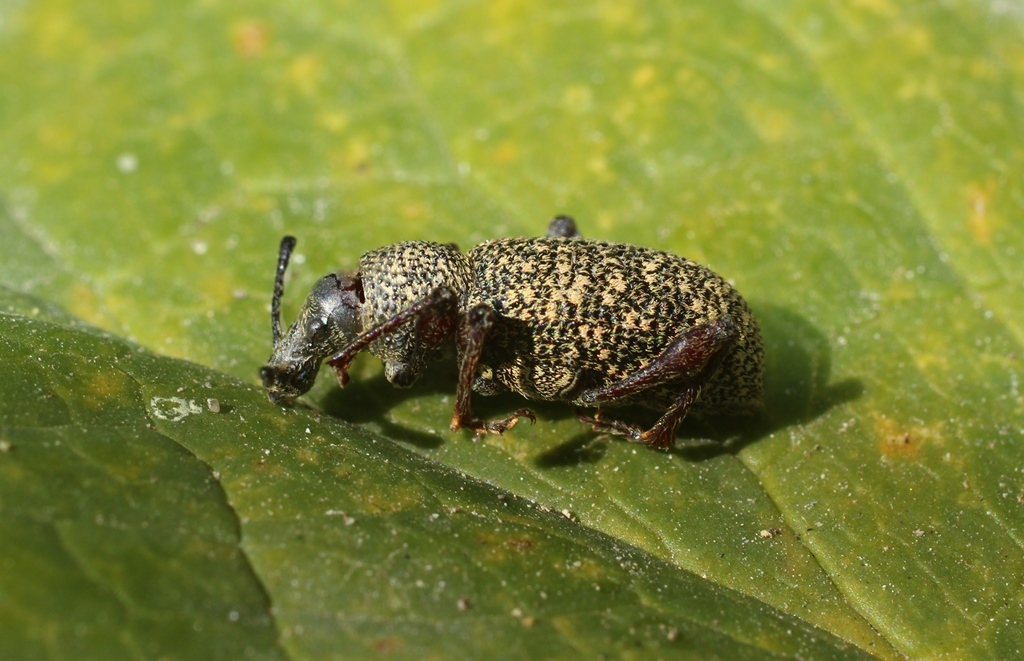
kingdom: Animalia
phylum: Arthropoda
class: Insecta
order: Coleoptera
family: Curculionidae
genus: Otiorhynchus
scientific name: Otiorhynchus turca
